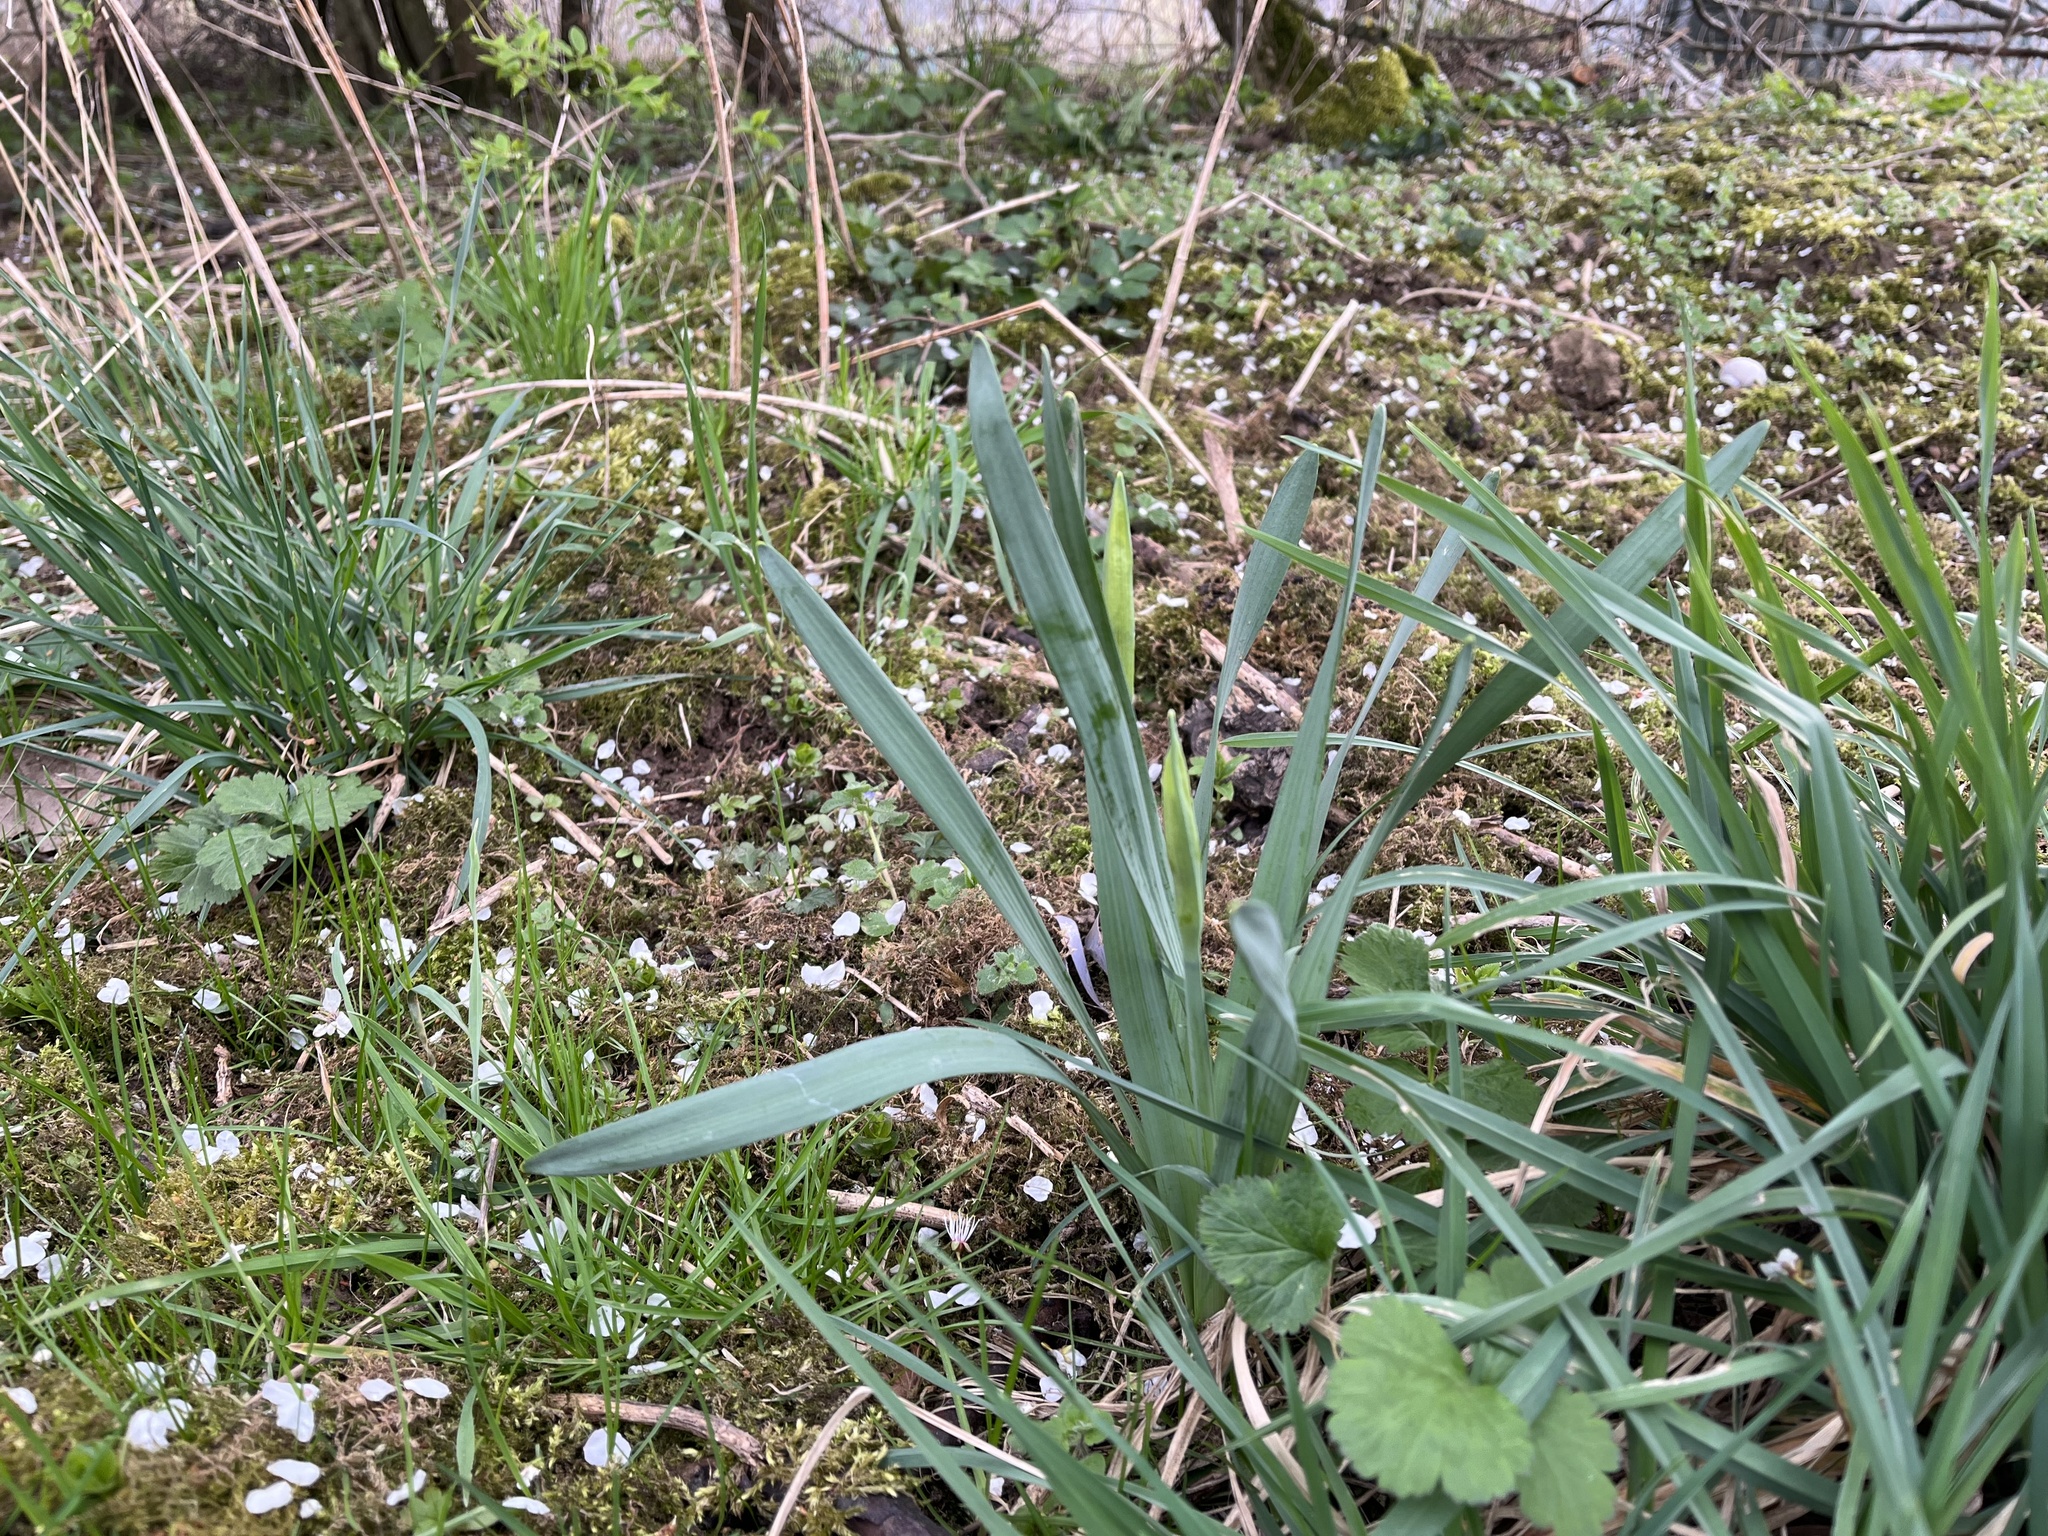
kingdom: Plantae
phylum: Tracheophyta
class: Liliopsida
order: Asparagales
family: Amaryllidaceae
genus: Narcissus
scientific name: Narcissus pseudonarcissus
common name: Daffodil
